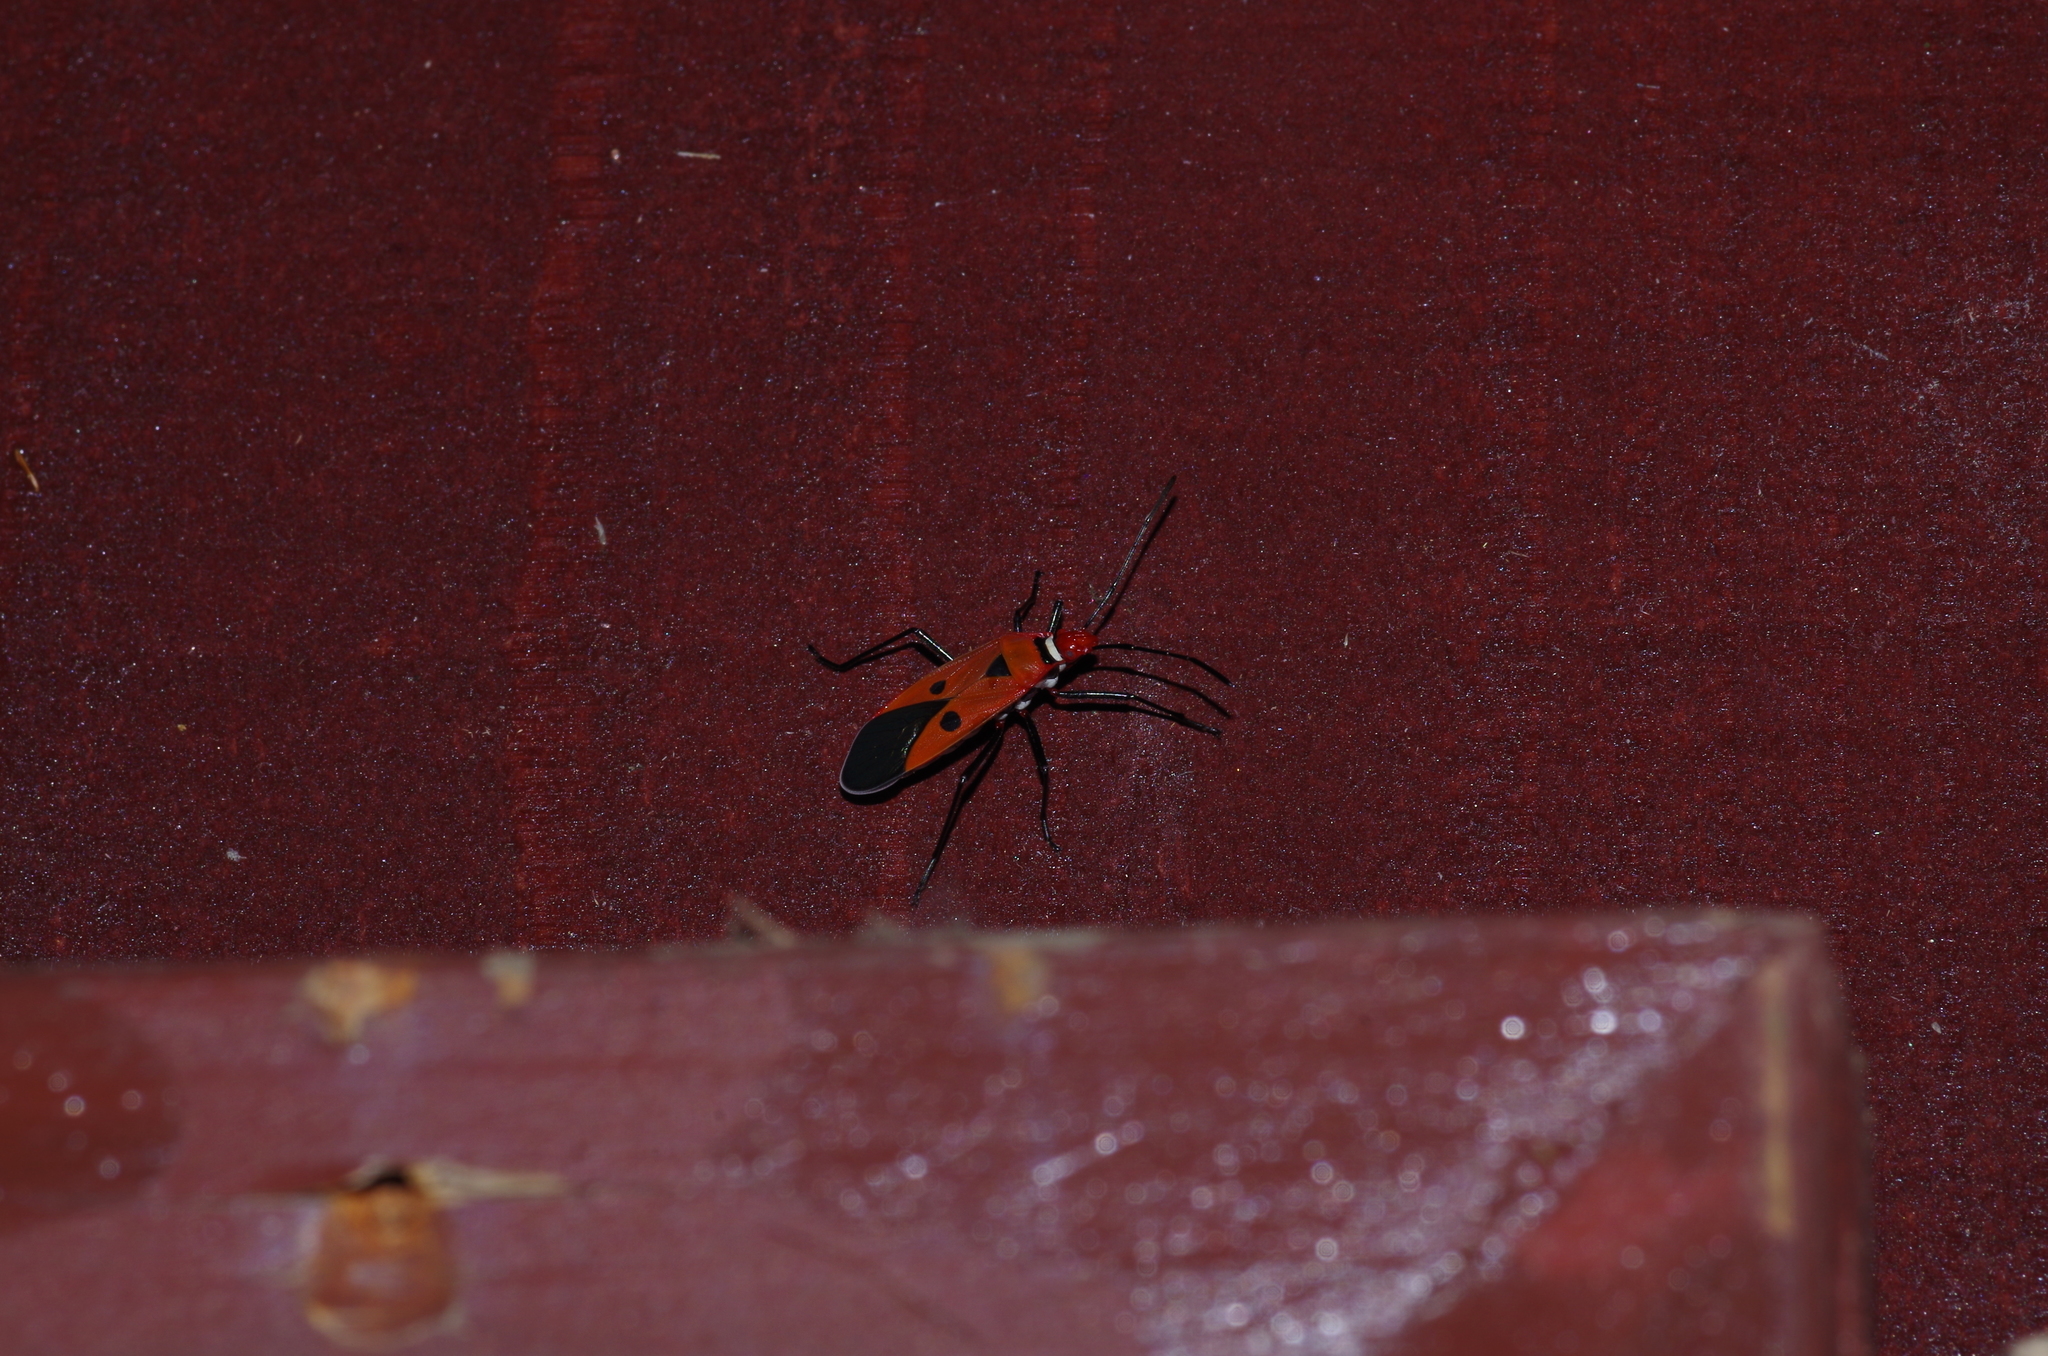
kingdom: Animalia
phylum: Arthropoda
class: Insecta
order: Hemiptera
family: Pyrrhocoridae
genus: Dysdercus
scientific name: Dysdercus cingulatus
